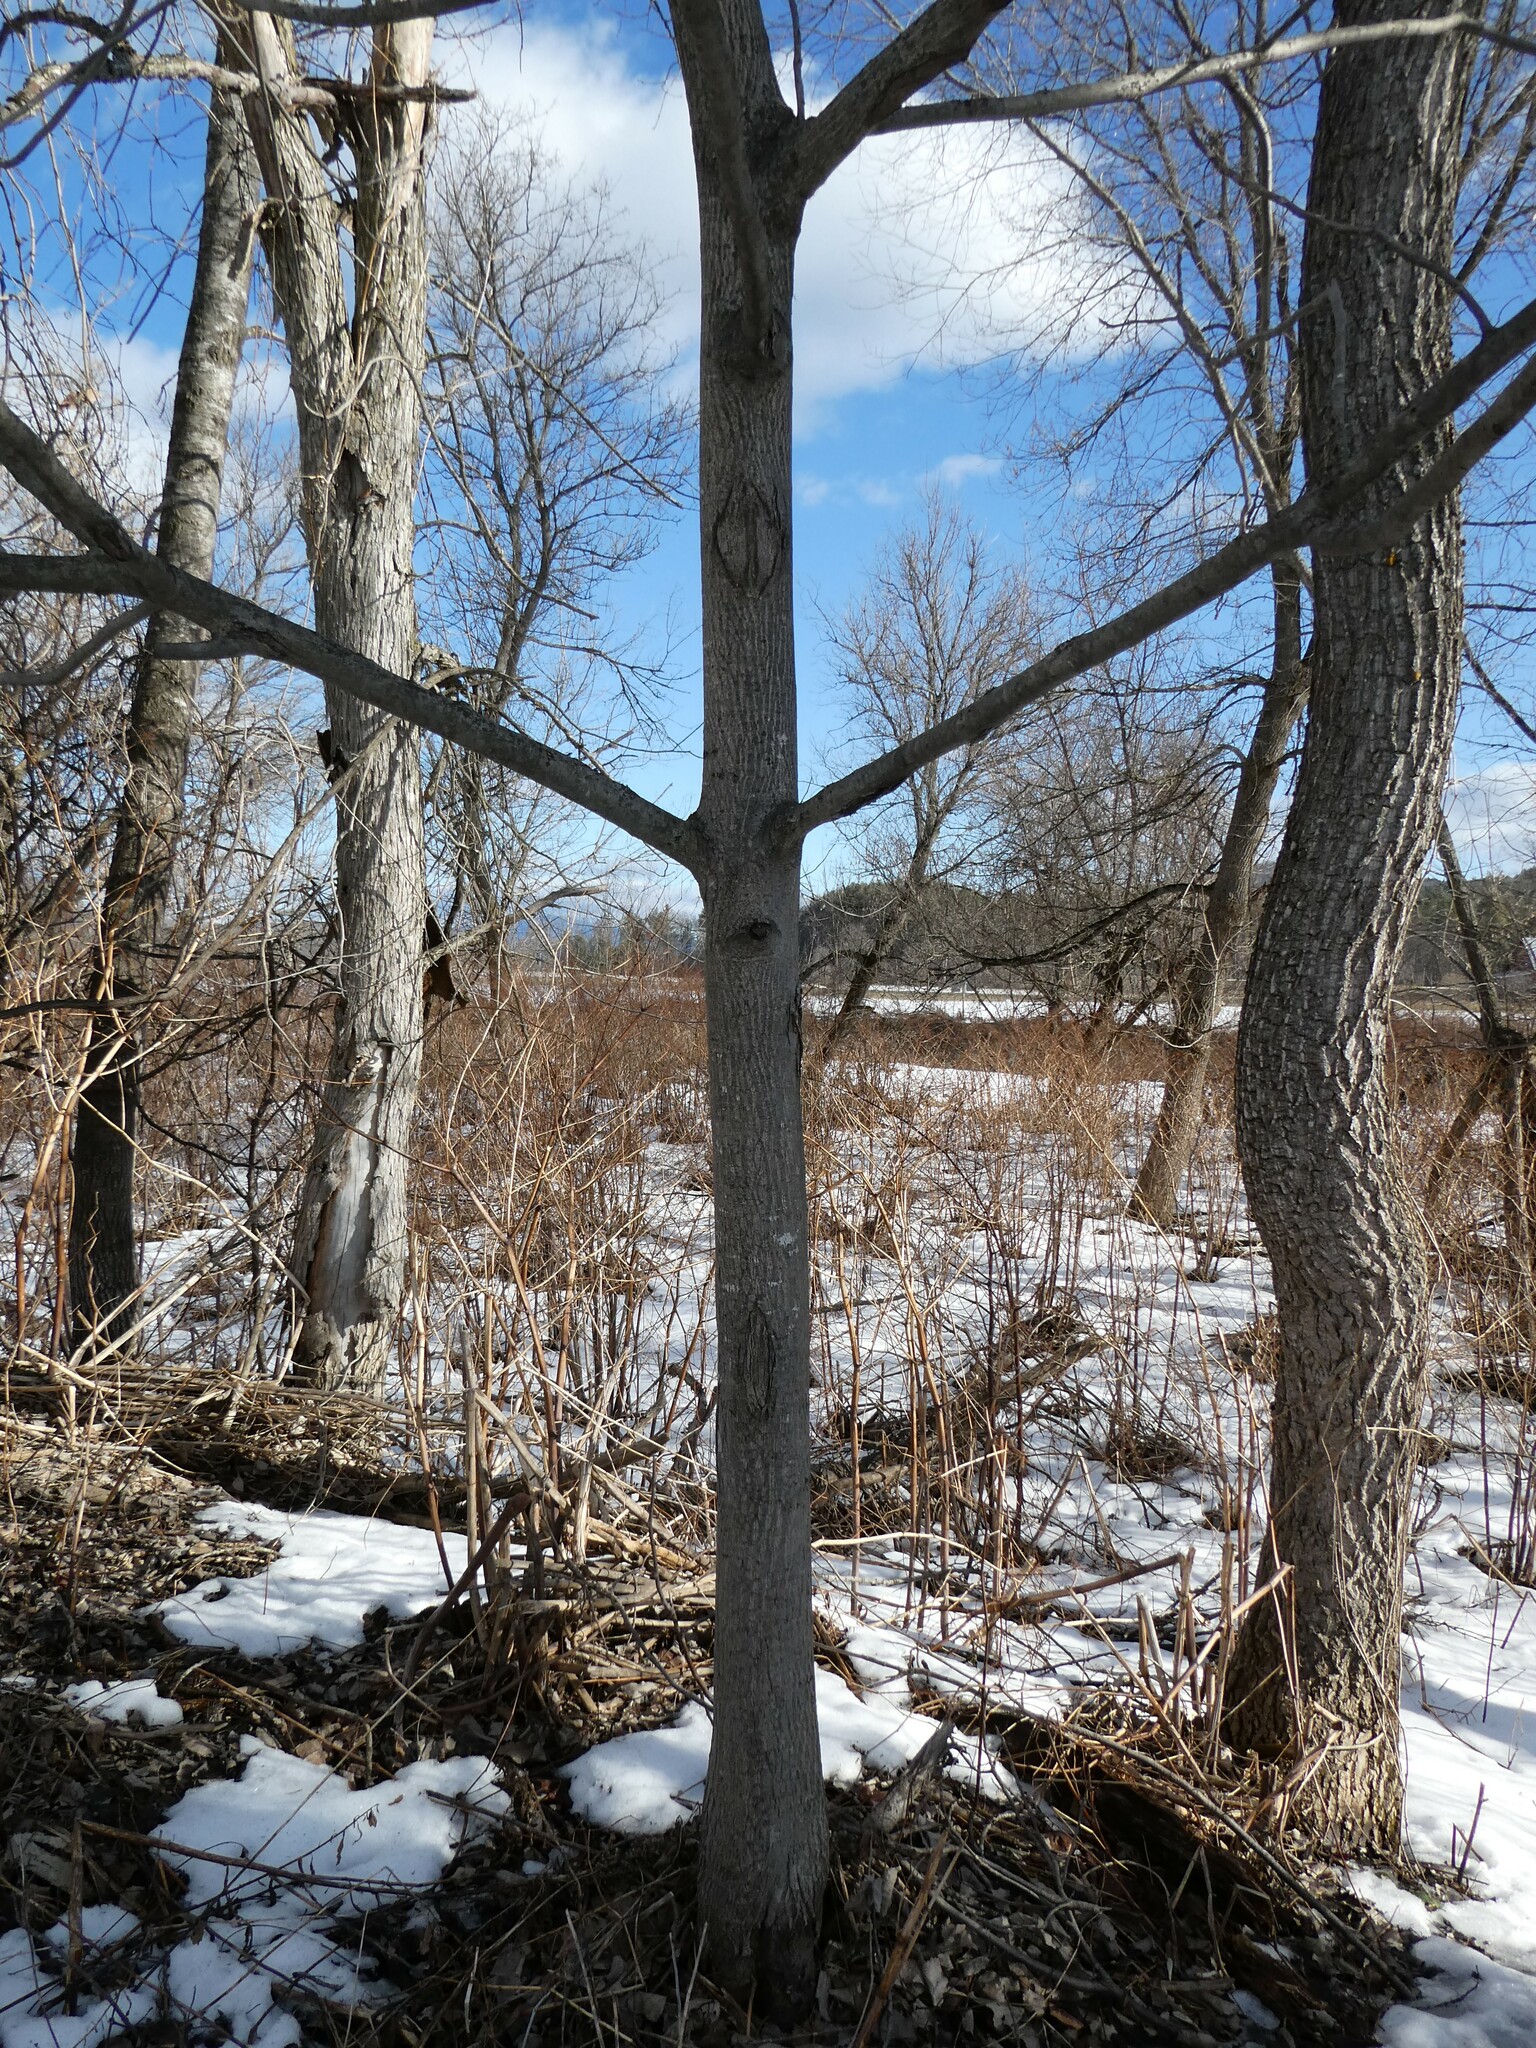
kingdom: Plantae
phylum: Tracheophyta
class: Magnoliopsida
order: Fagales
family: Juglandaceae
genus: Juglans
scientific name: Juglans cinerea
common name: Butternut
